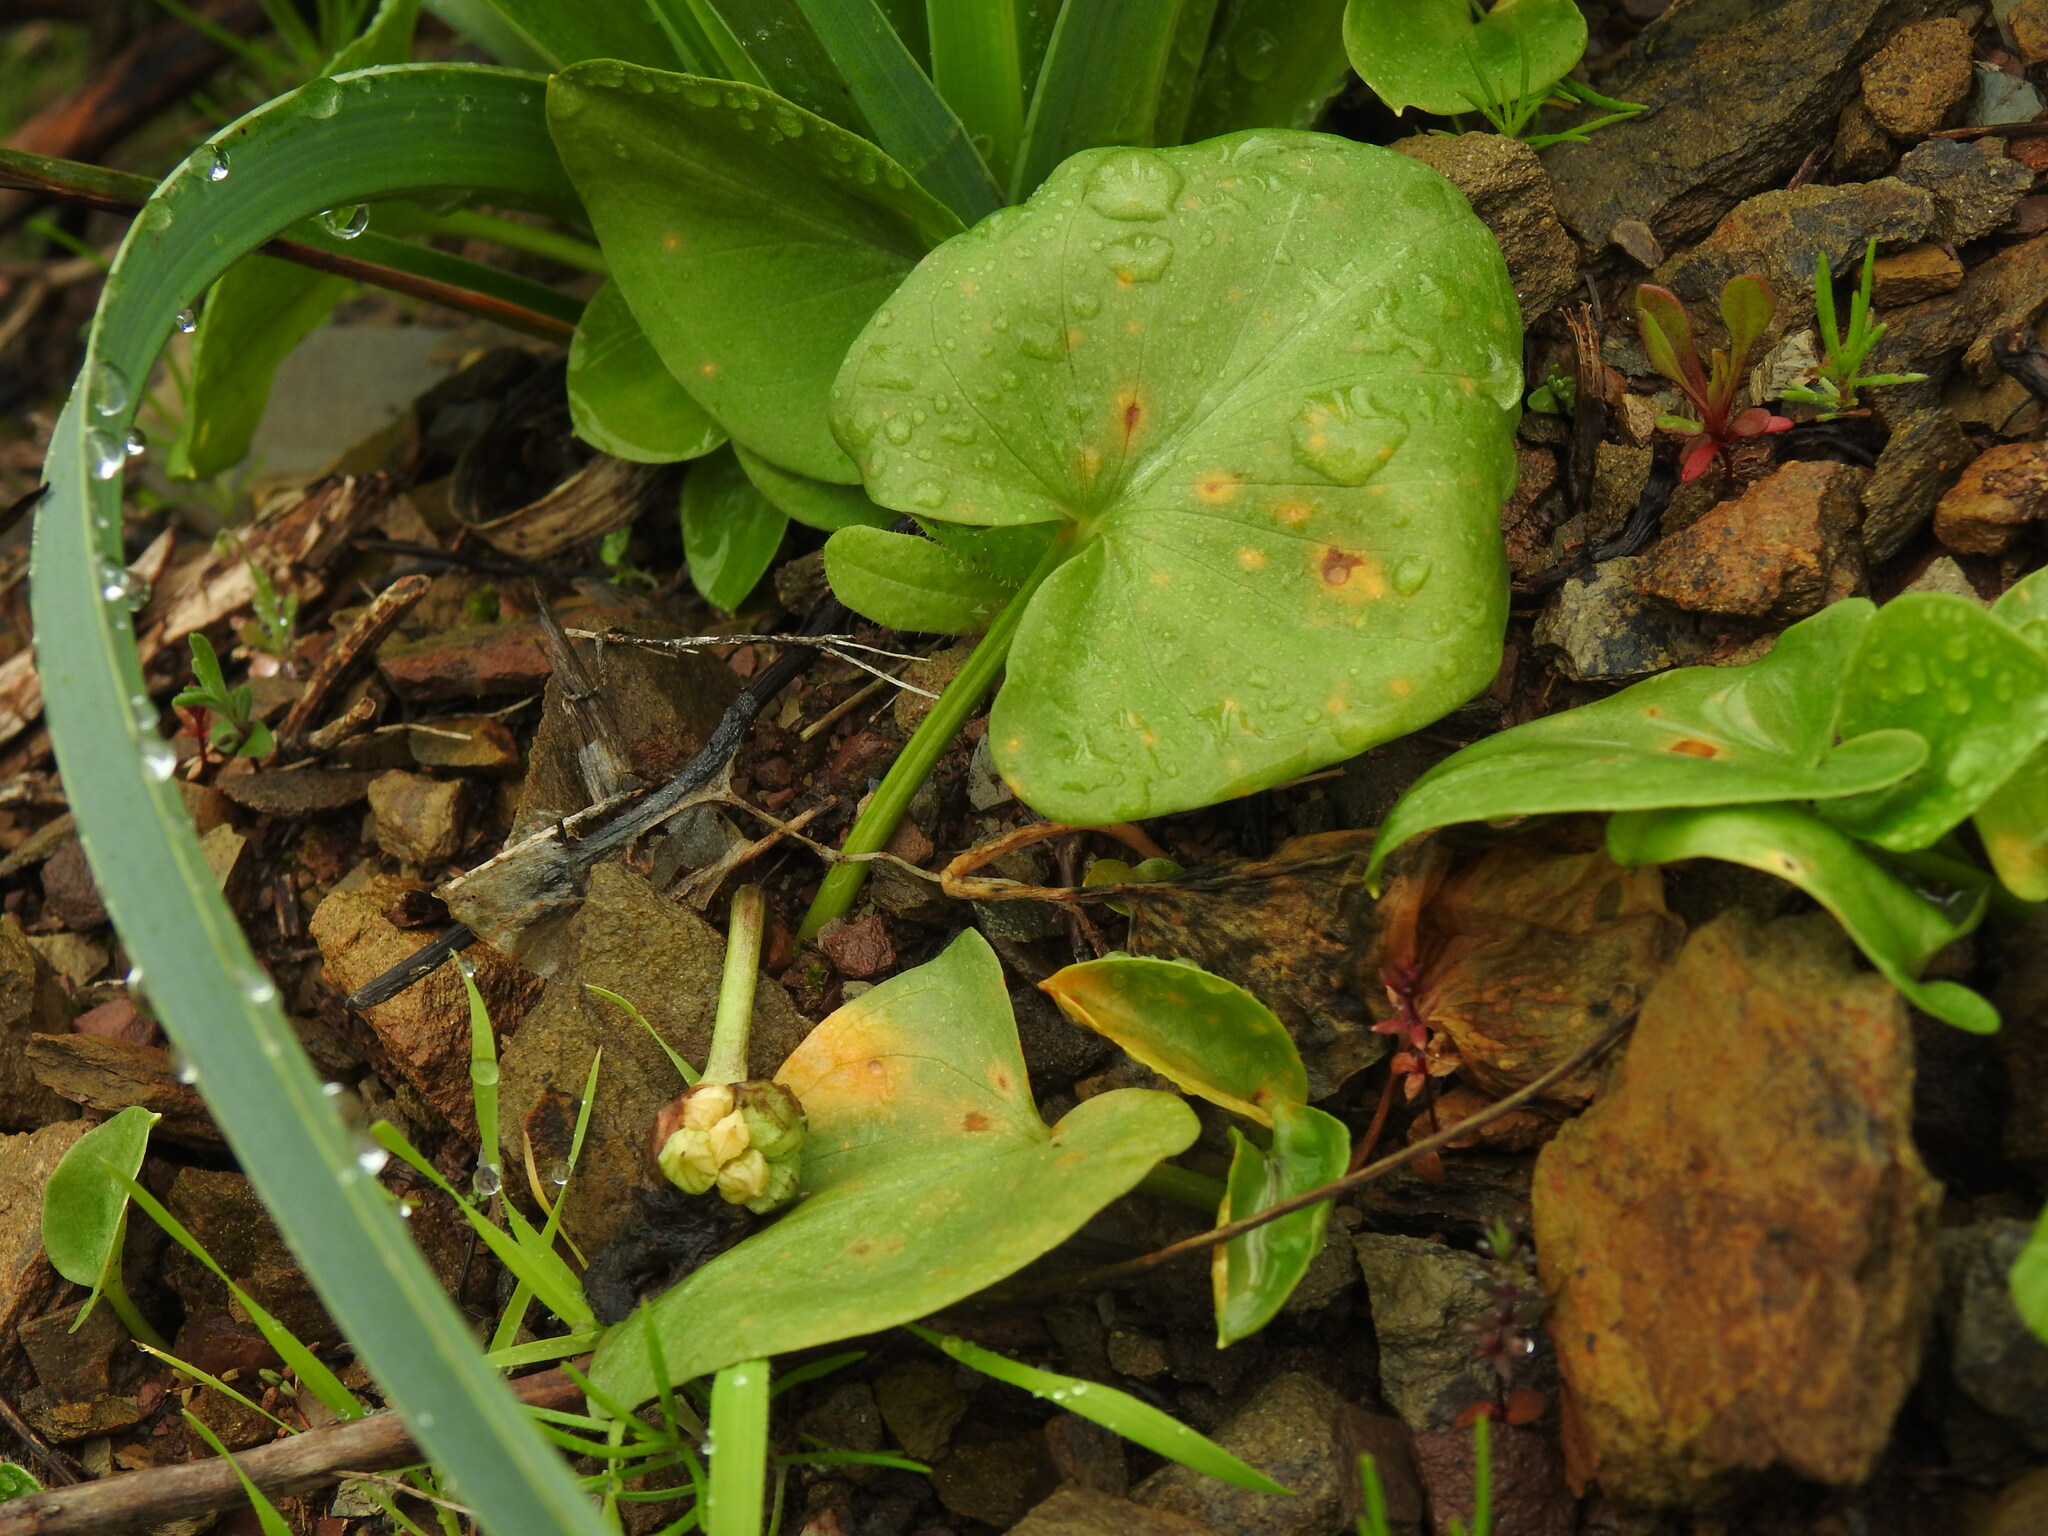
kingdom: Plantae
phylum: Tracheophyta
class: Liliopsida
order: Alismatales
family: Araceae
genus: Arisarum
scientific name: Arisarum simorrhinum
